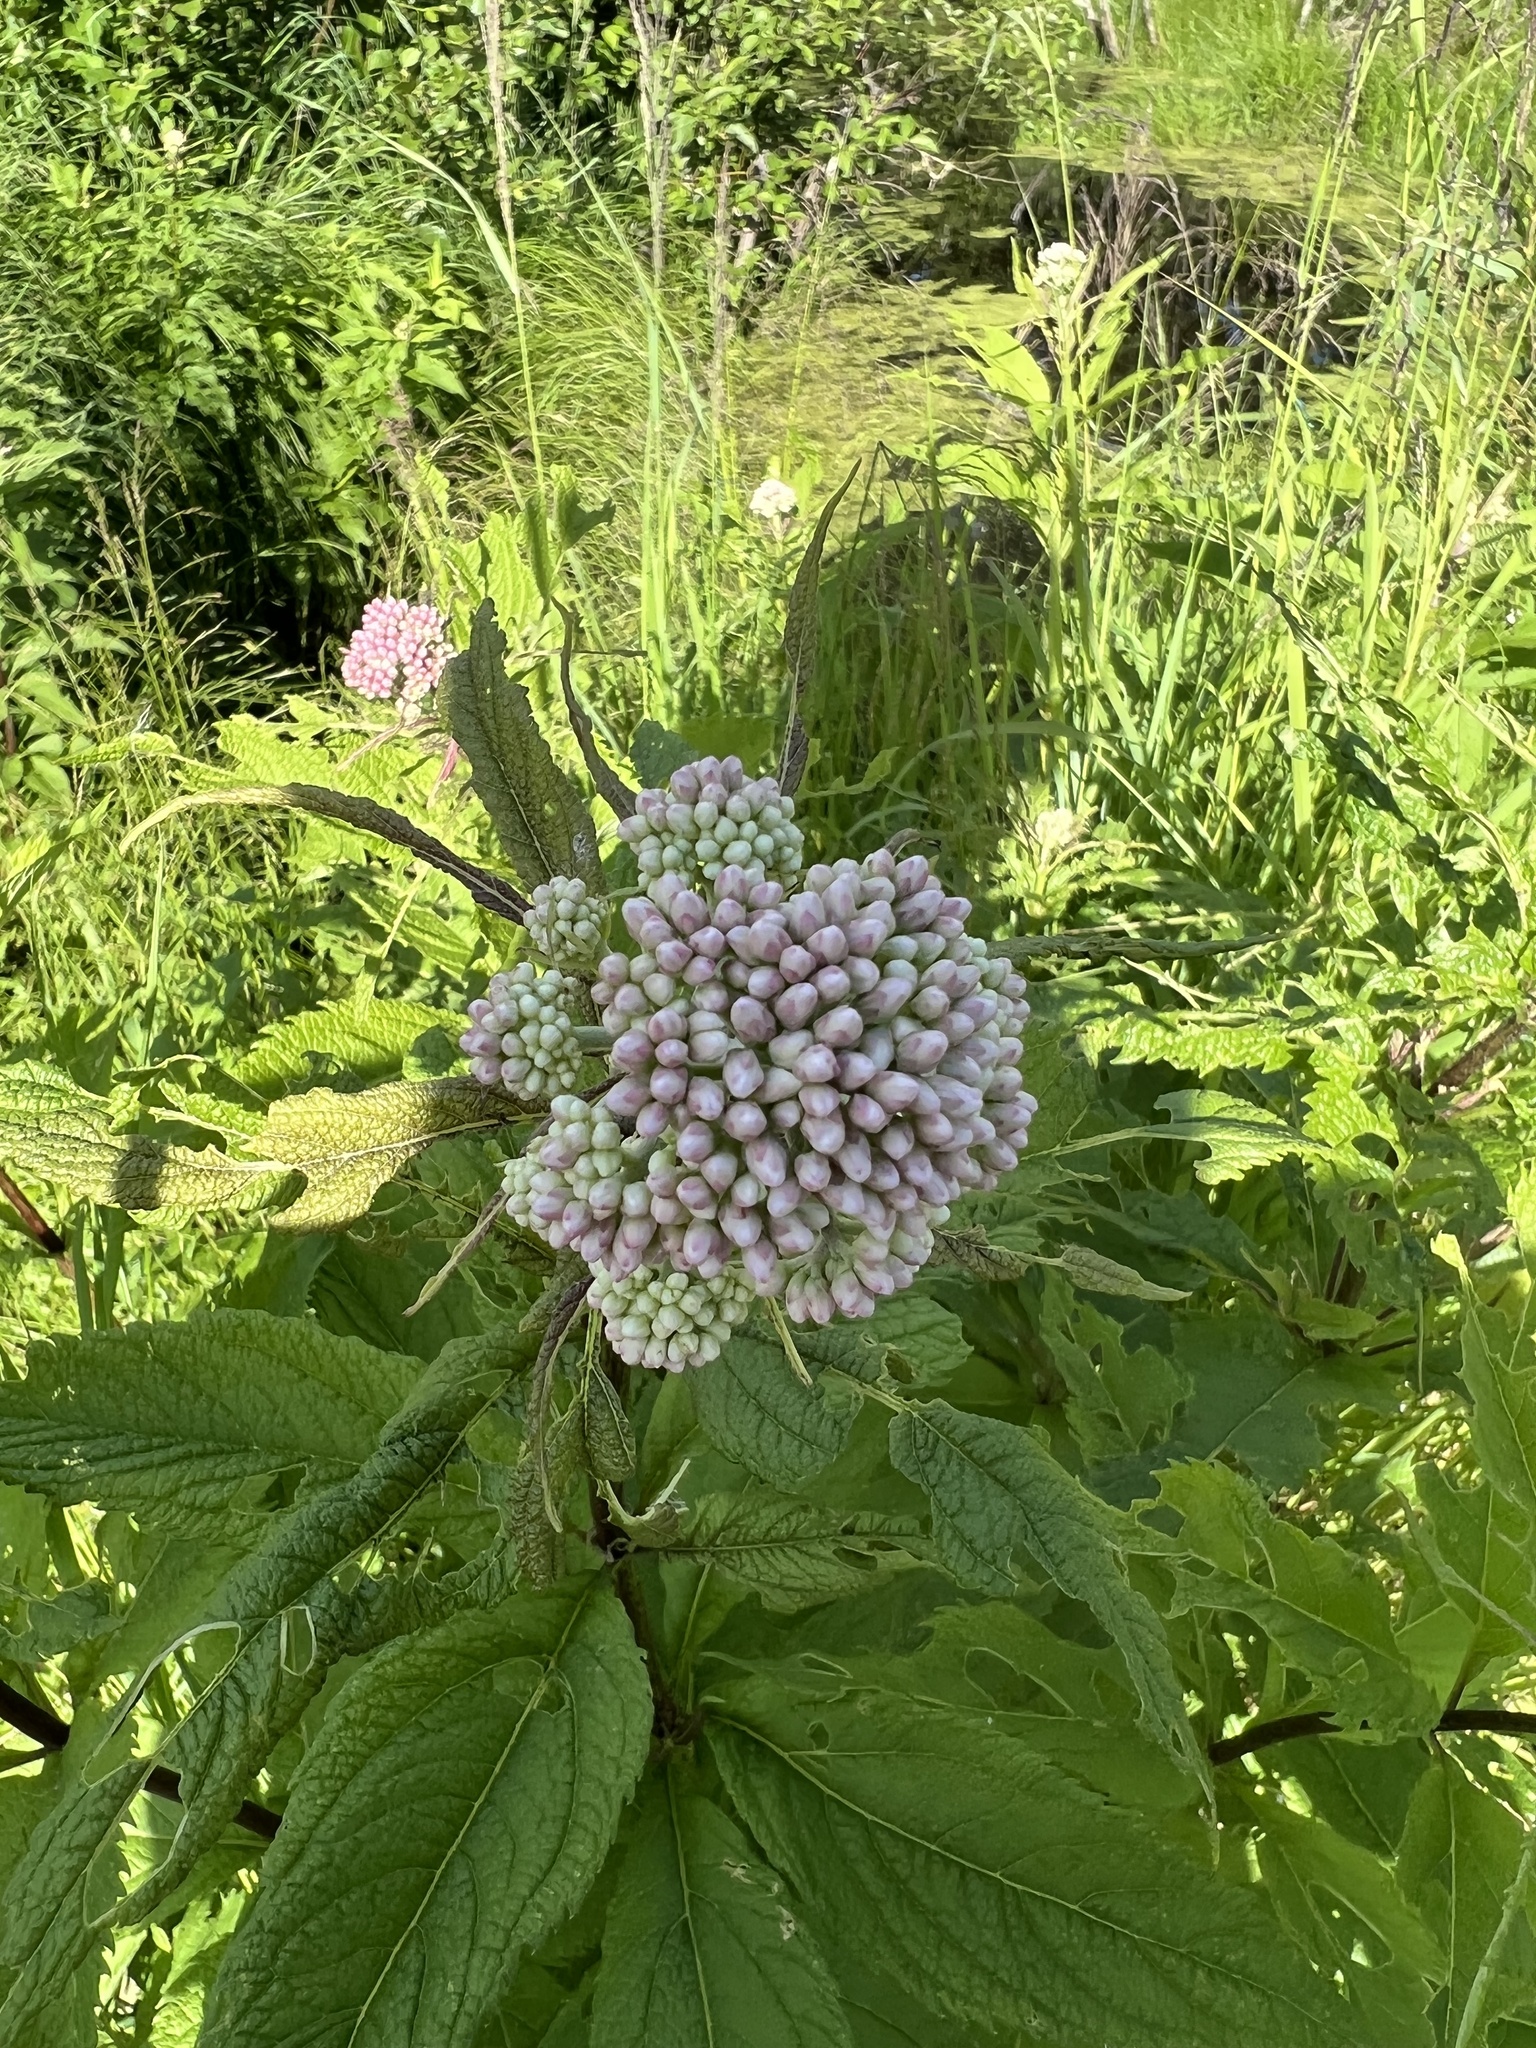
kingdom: Plantae
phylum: Tracheophyta
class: Magnoliopsida
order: Asterales
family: Asteraceae
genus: Eutrochium
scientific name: Eutrochium maculatum
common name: Spotted joe pye weed
